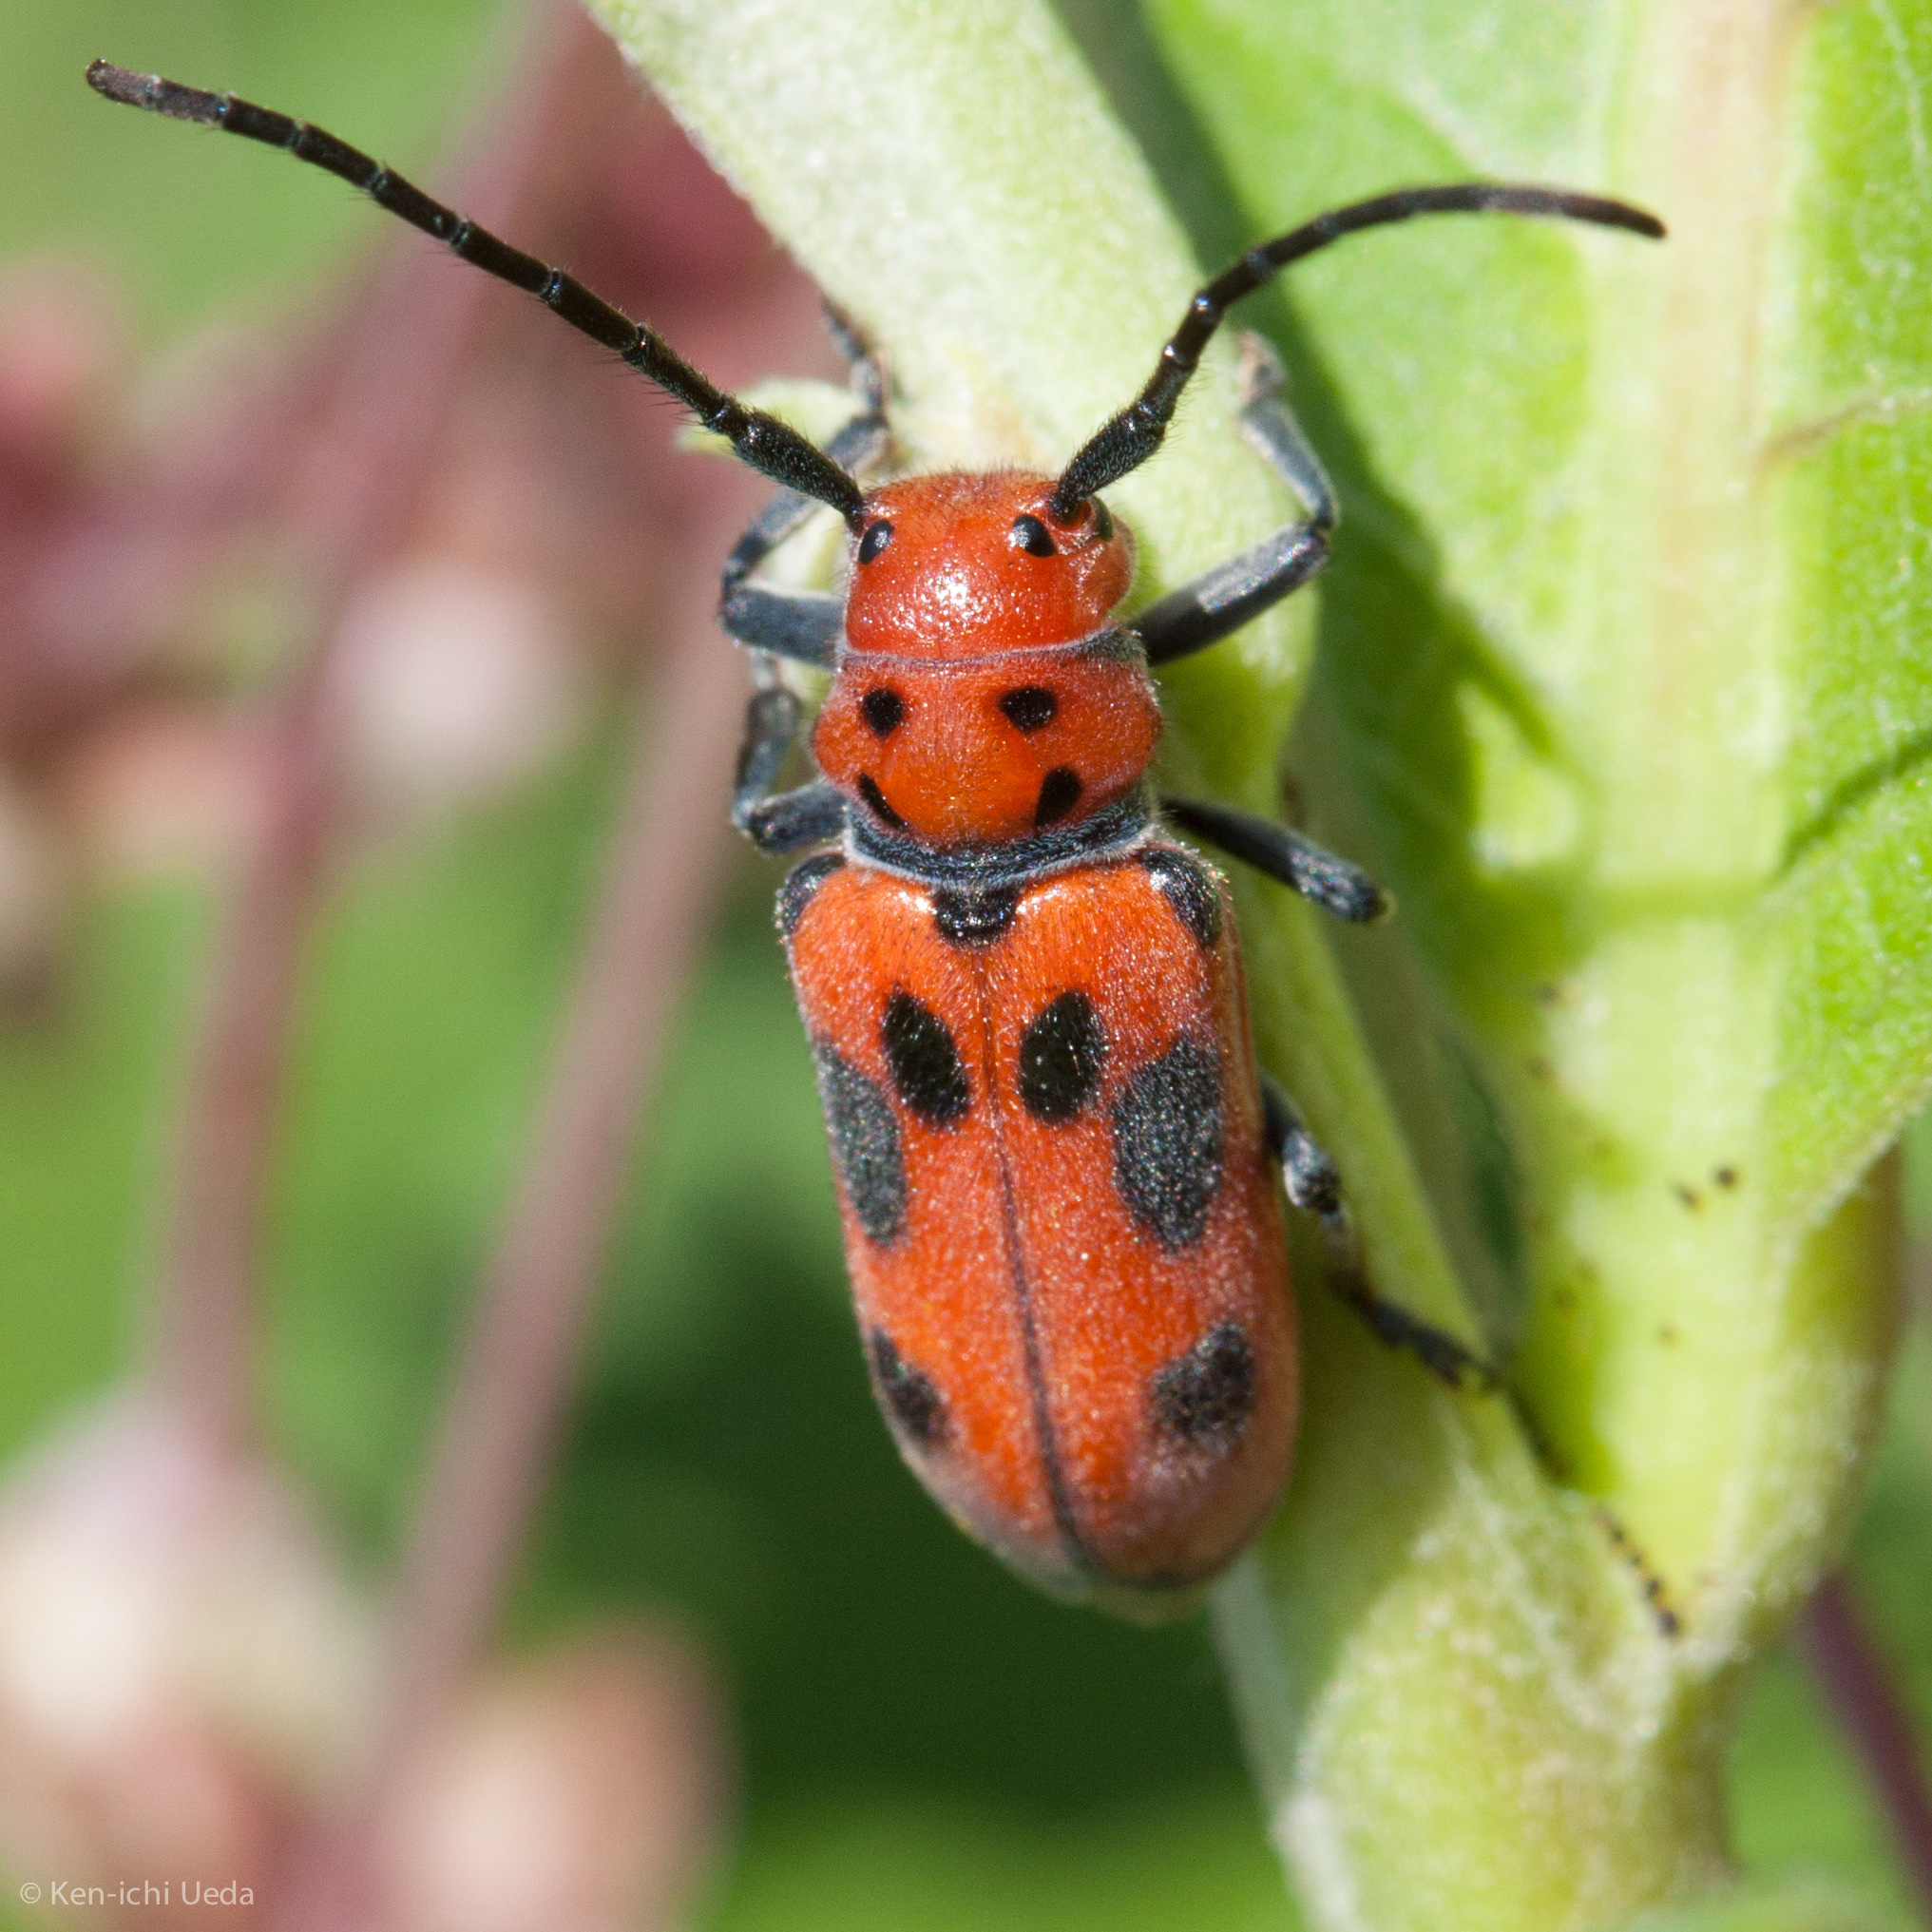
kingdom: Animalia
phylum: Arthropoda
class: Insecta
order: Coleoptera
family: Cerambycidae
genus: Tetraopes
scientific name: Tetraopes tetrophthalmus
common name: Red milkweed beetle
